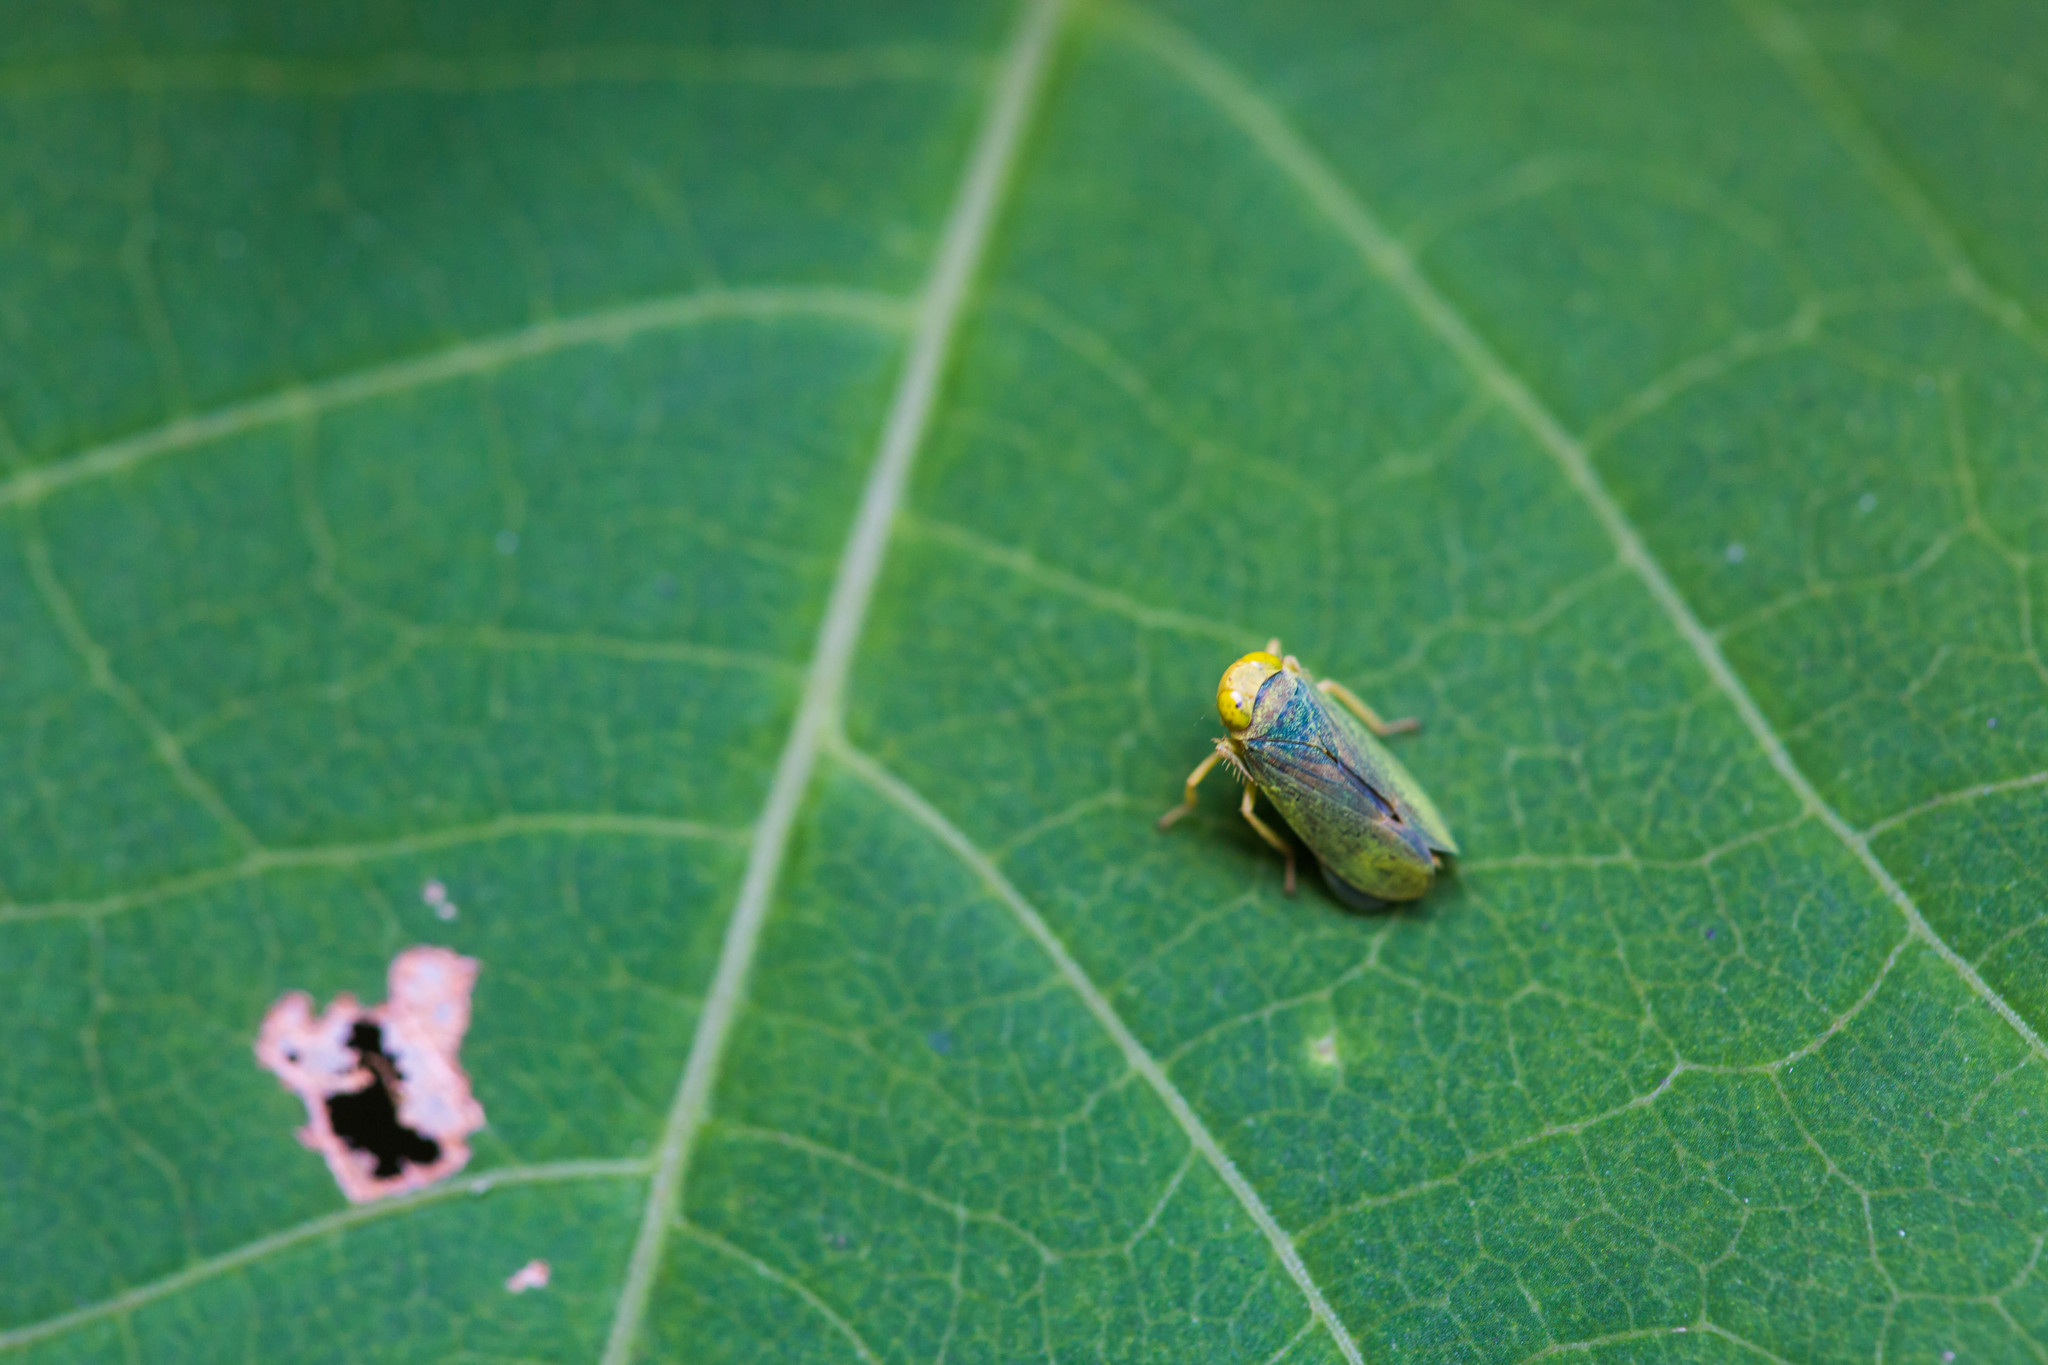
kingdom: Animalia
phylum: Arthropoda
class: Insecta
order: Hemiptera
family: Cicadellidae
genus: Jikradia
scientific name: Jikradia olitoria
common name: Coppery leafhopper
